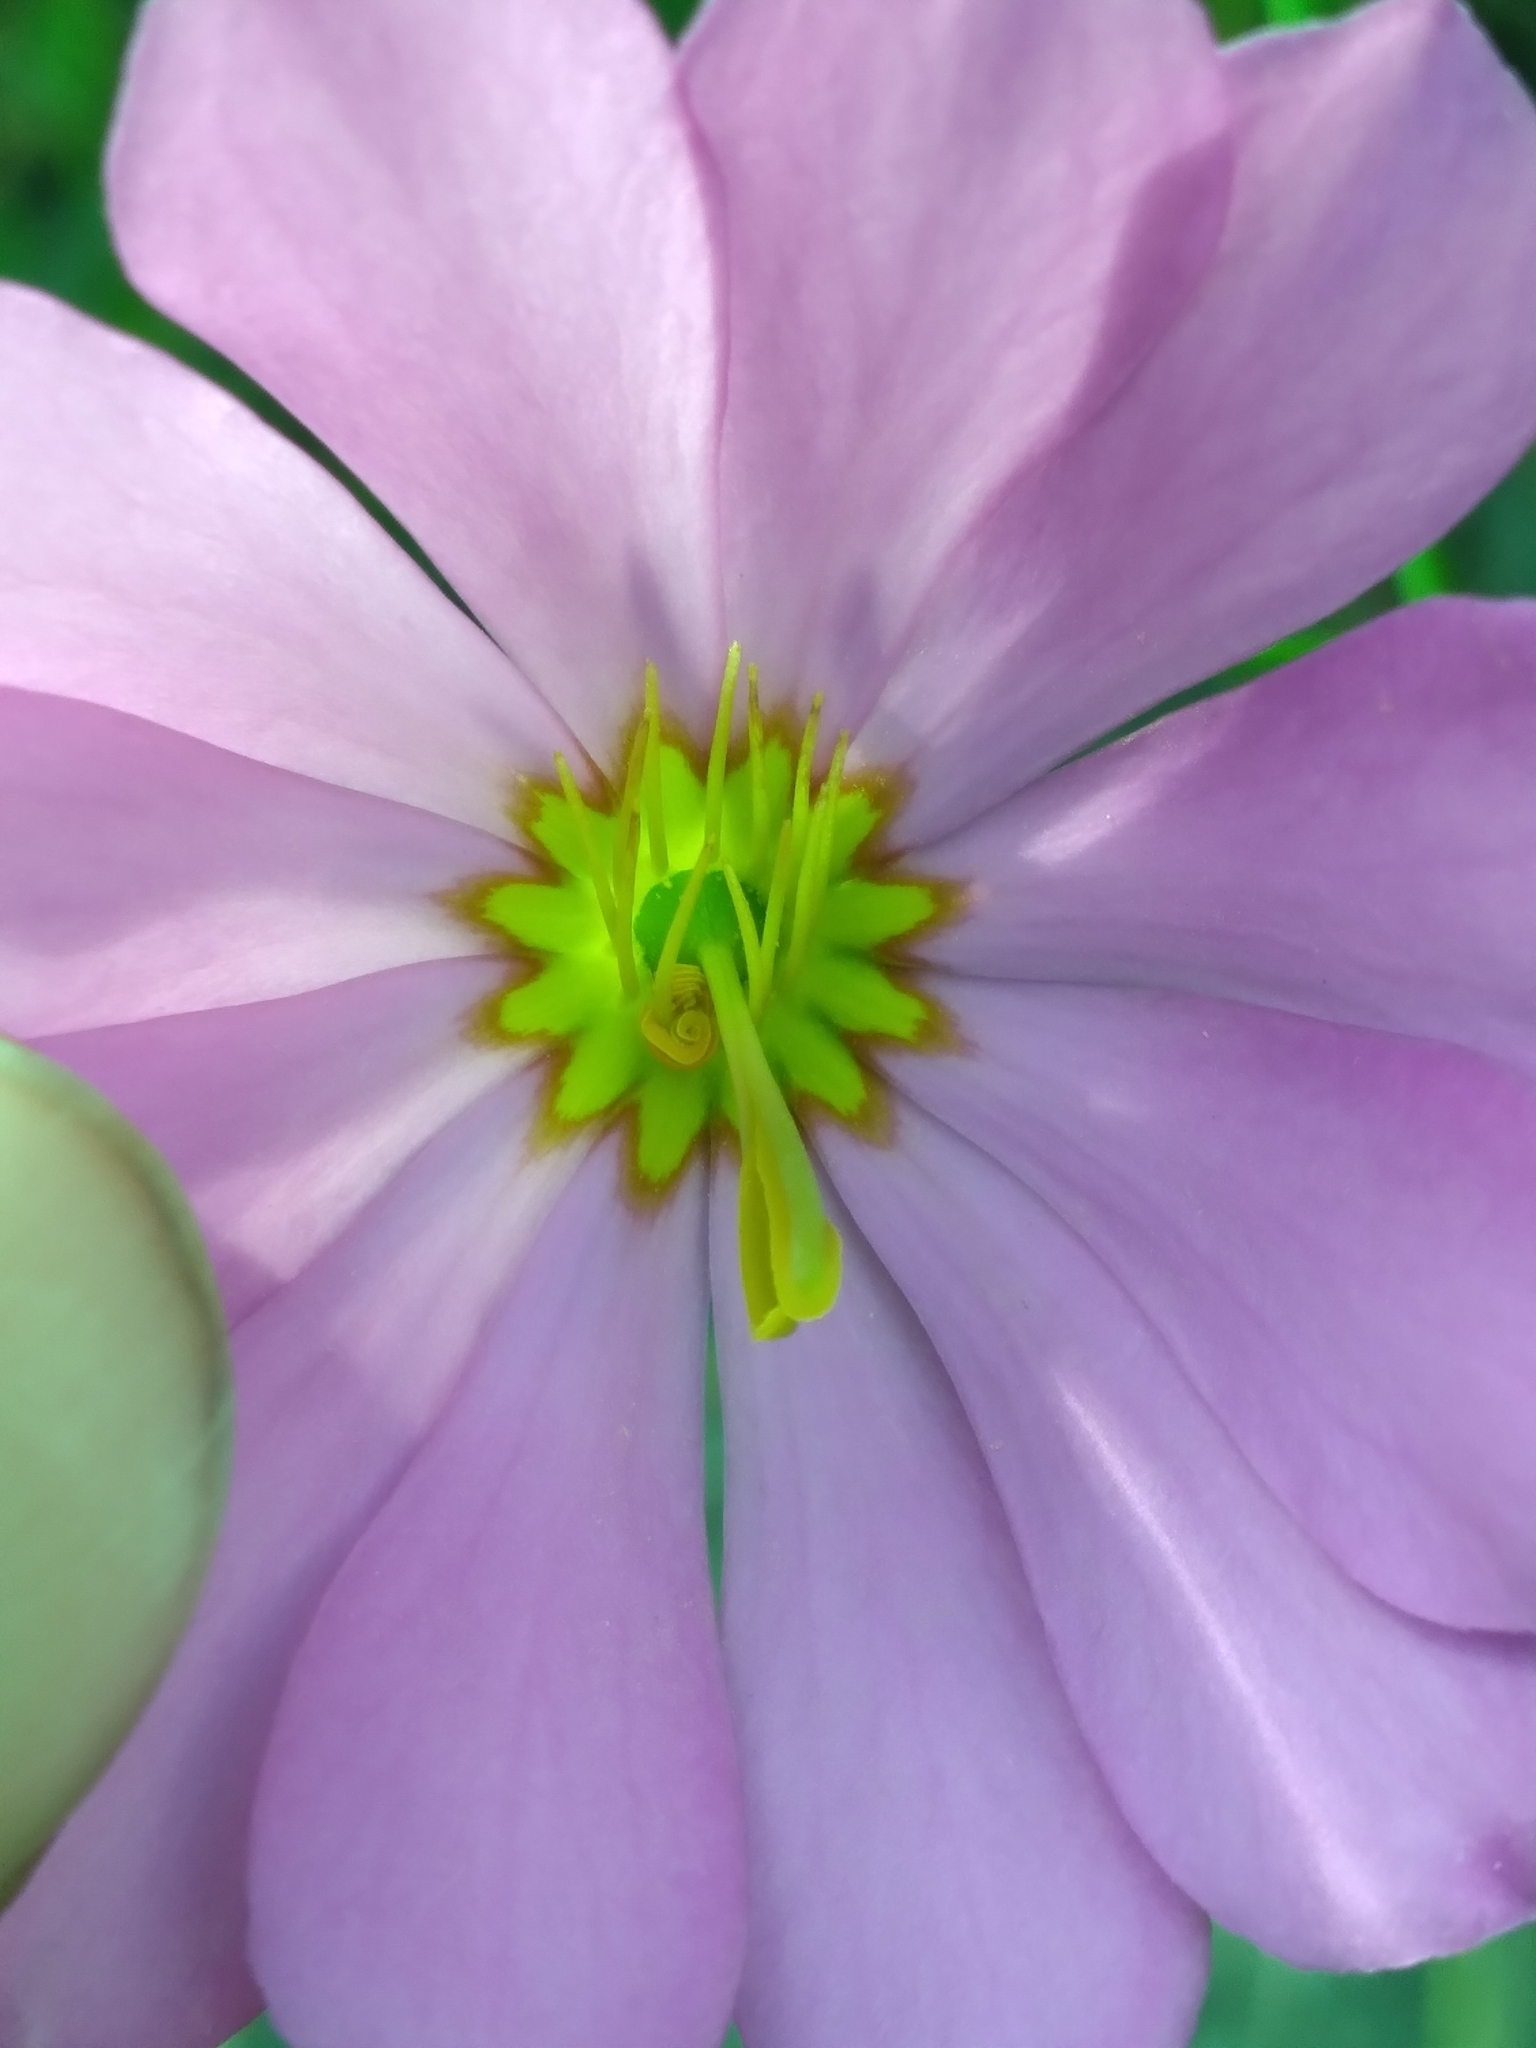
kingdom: Plantae
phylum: Tracheophyta
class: Magnoliopsida
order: Gentianales
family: Gentianaceae
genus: Sabatia
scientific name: Sabatia decandra
